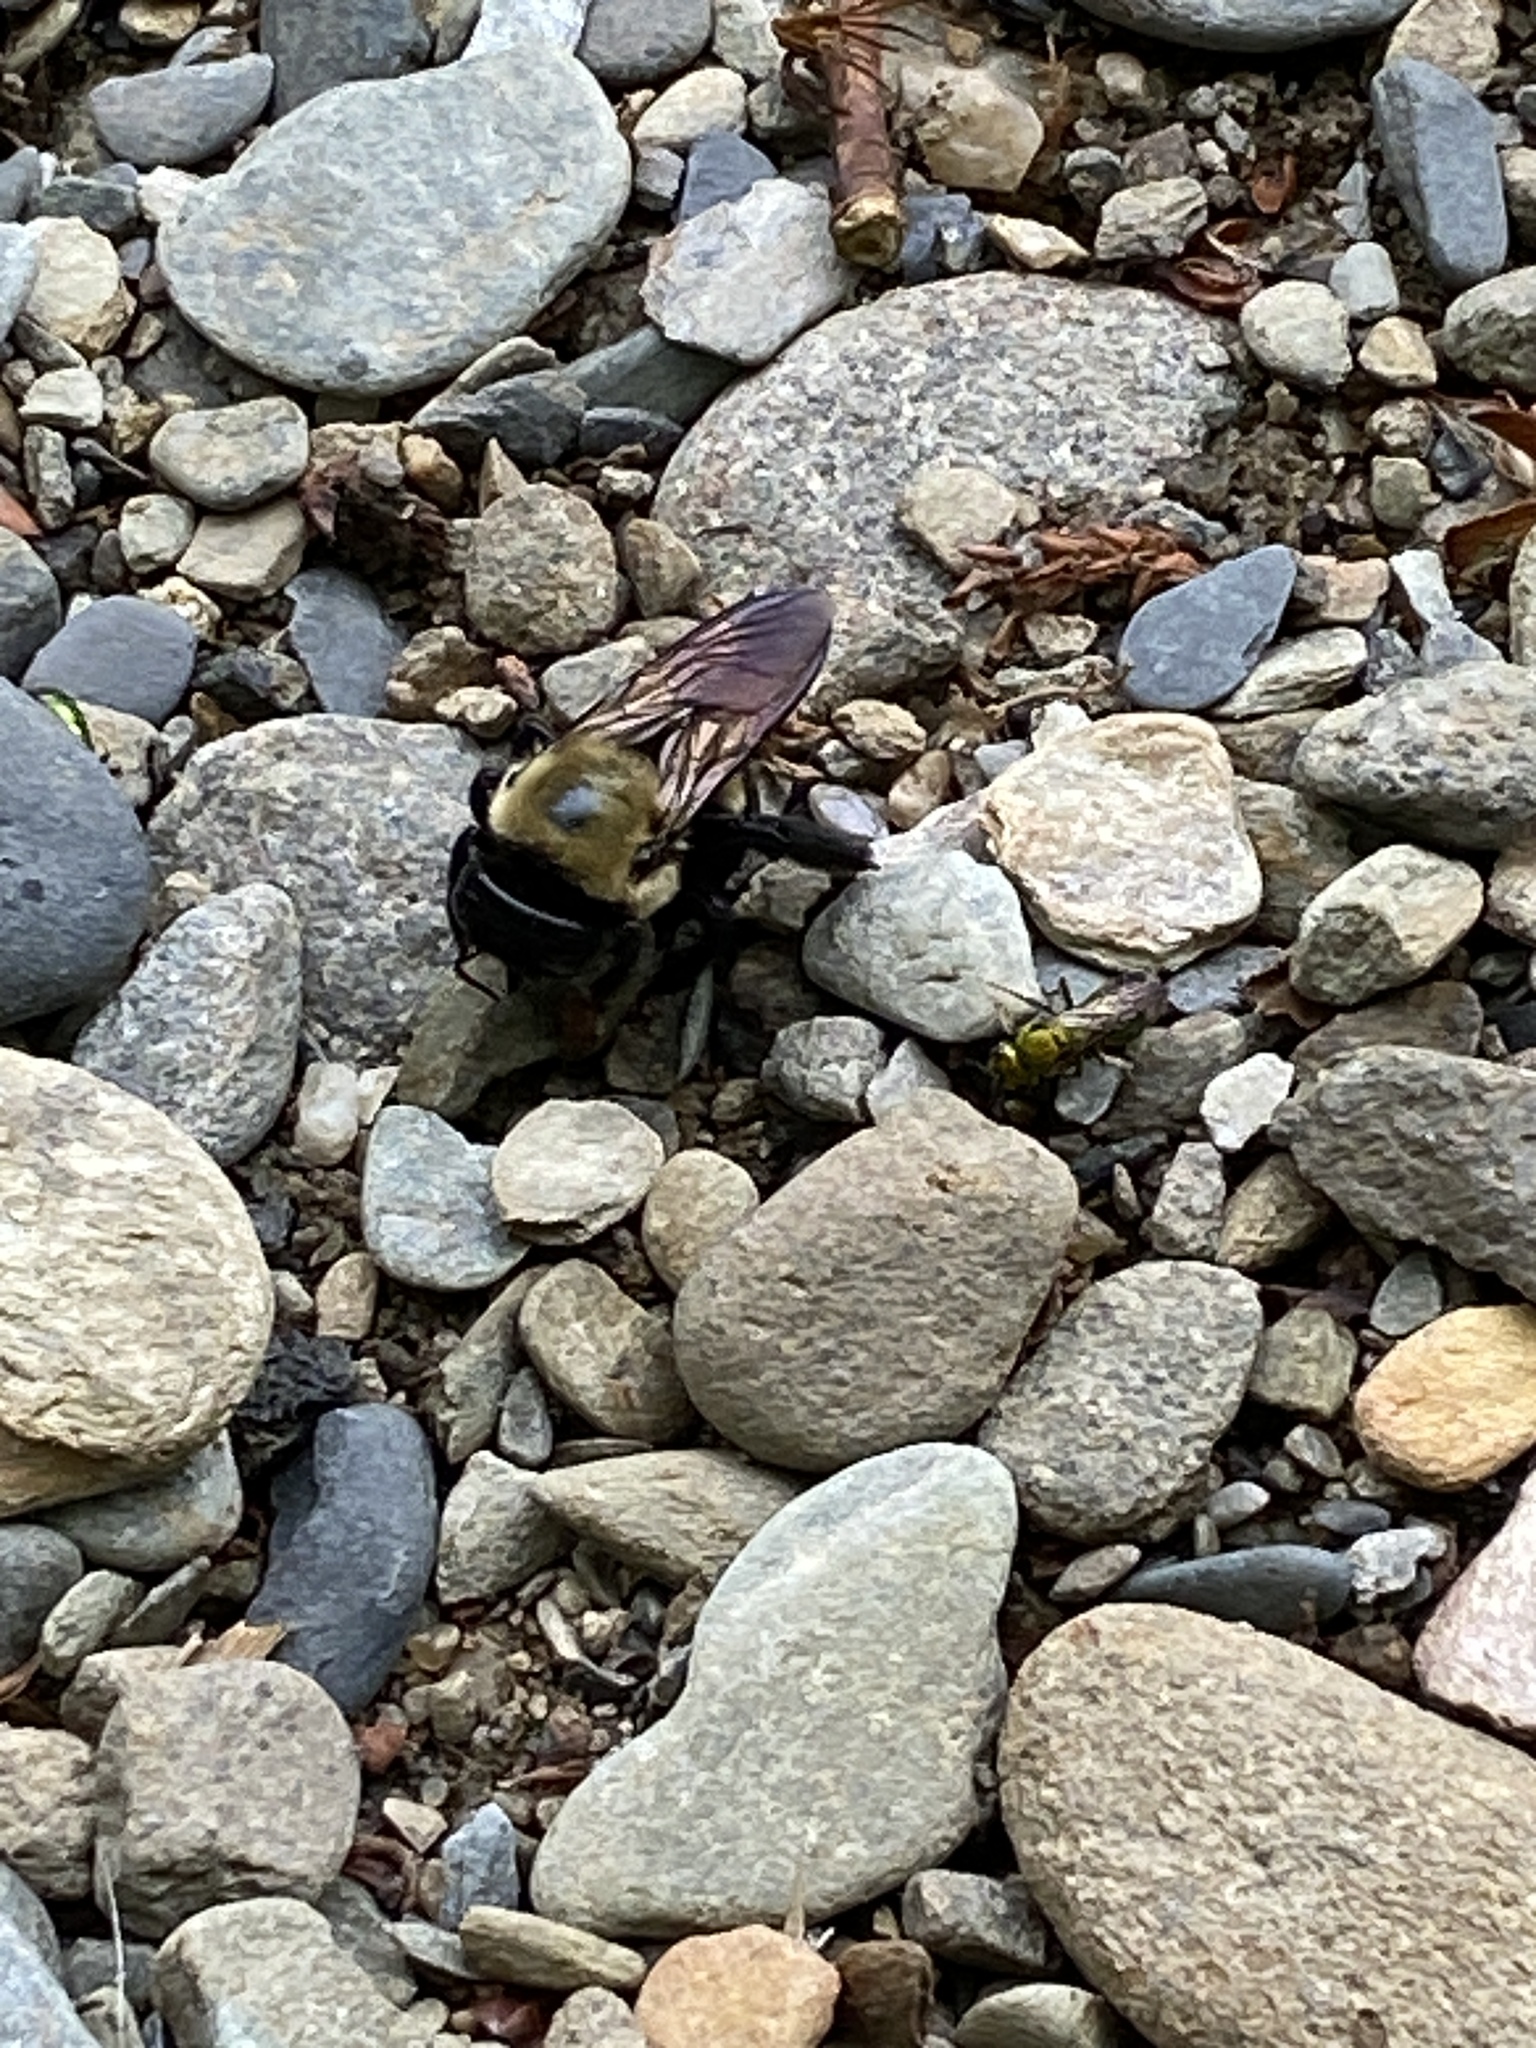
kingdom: Animalia
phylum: Arthropoda
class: Insecta
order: Hymenoptera
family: Apidae
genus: Xylocopa
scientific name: Xylocopa virginica
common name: Carpenter bee
